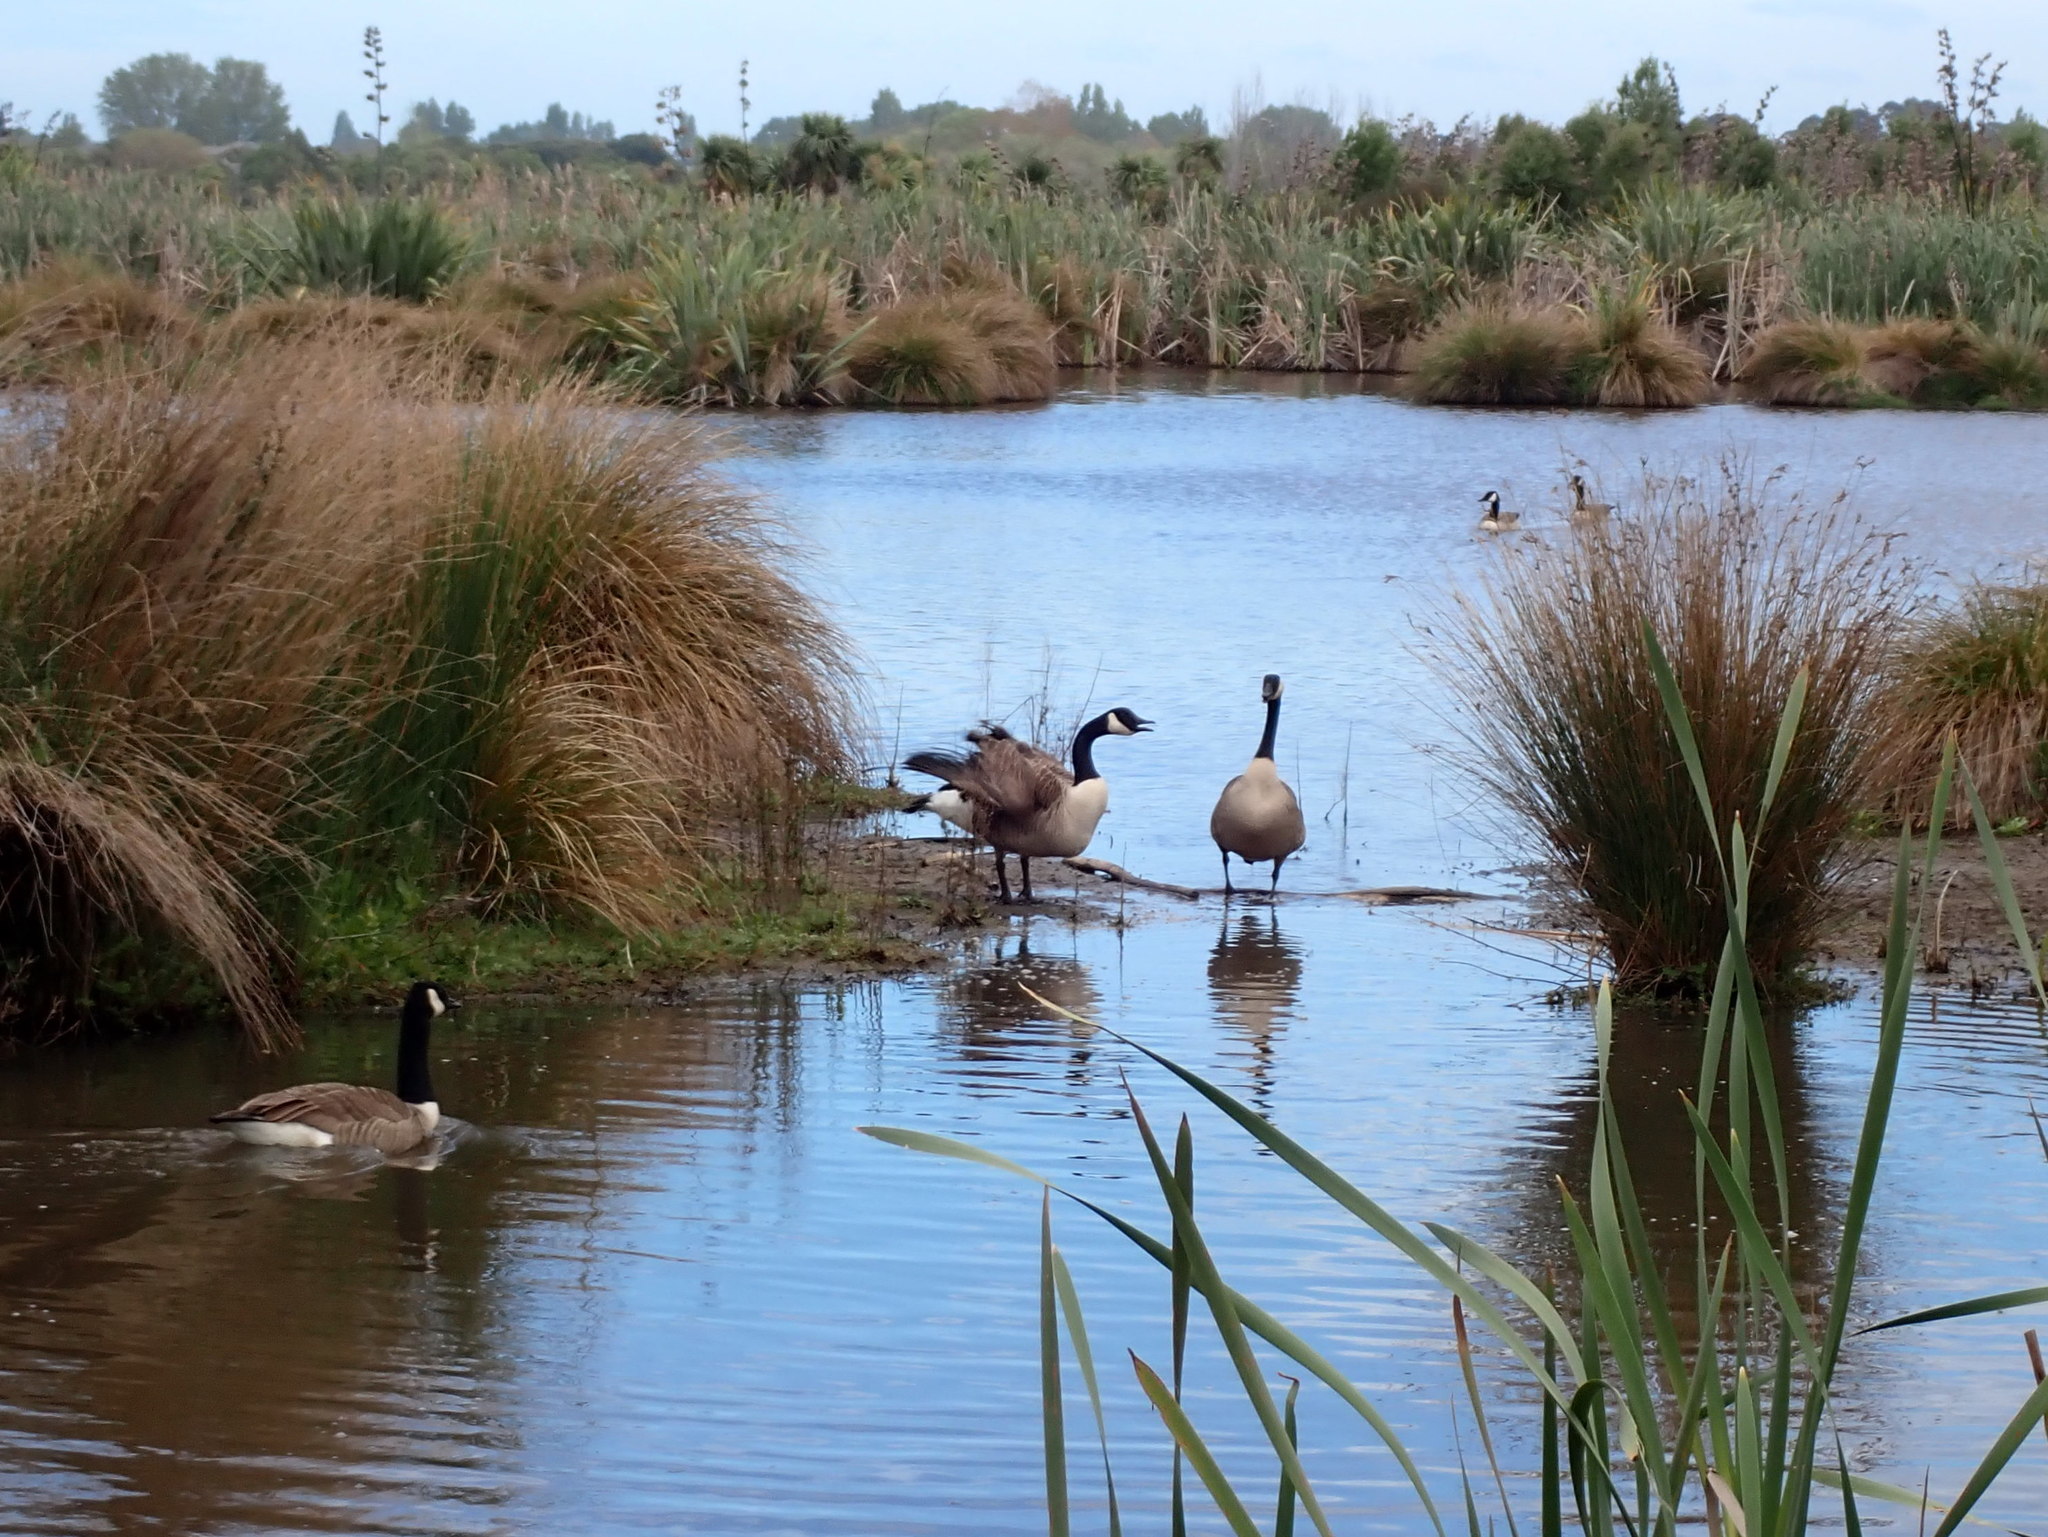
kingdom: Animalia
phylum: Chordata
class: Aves
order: Anseriformes
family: Anatidae
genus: Branta
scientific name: Branta canadensis
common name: Canada goose
